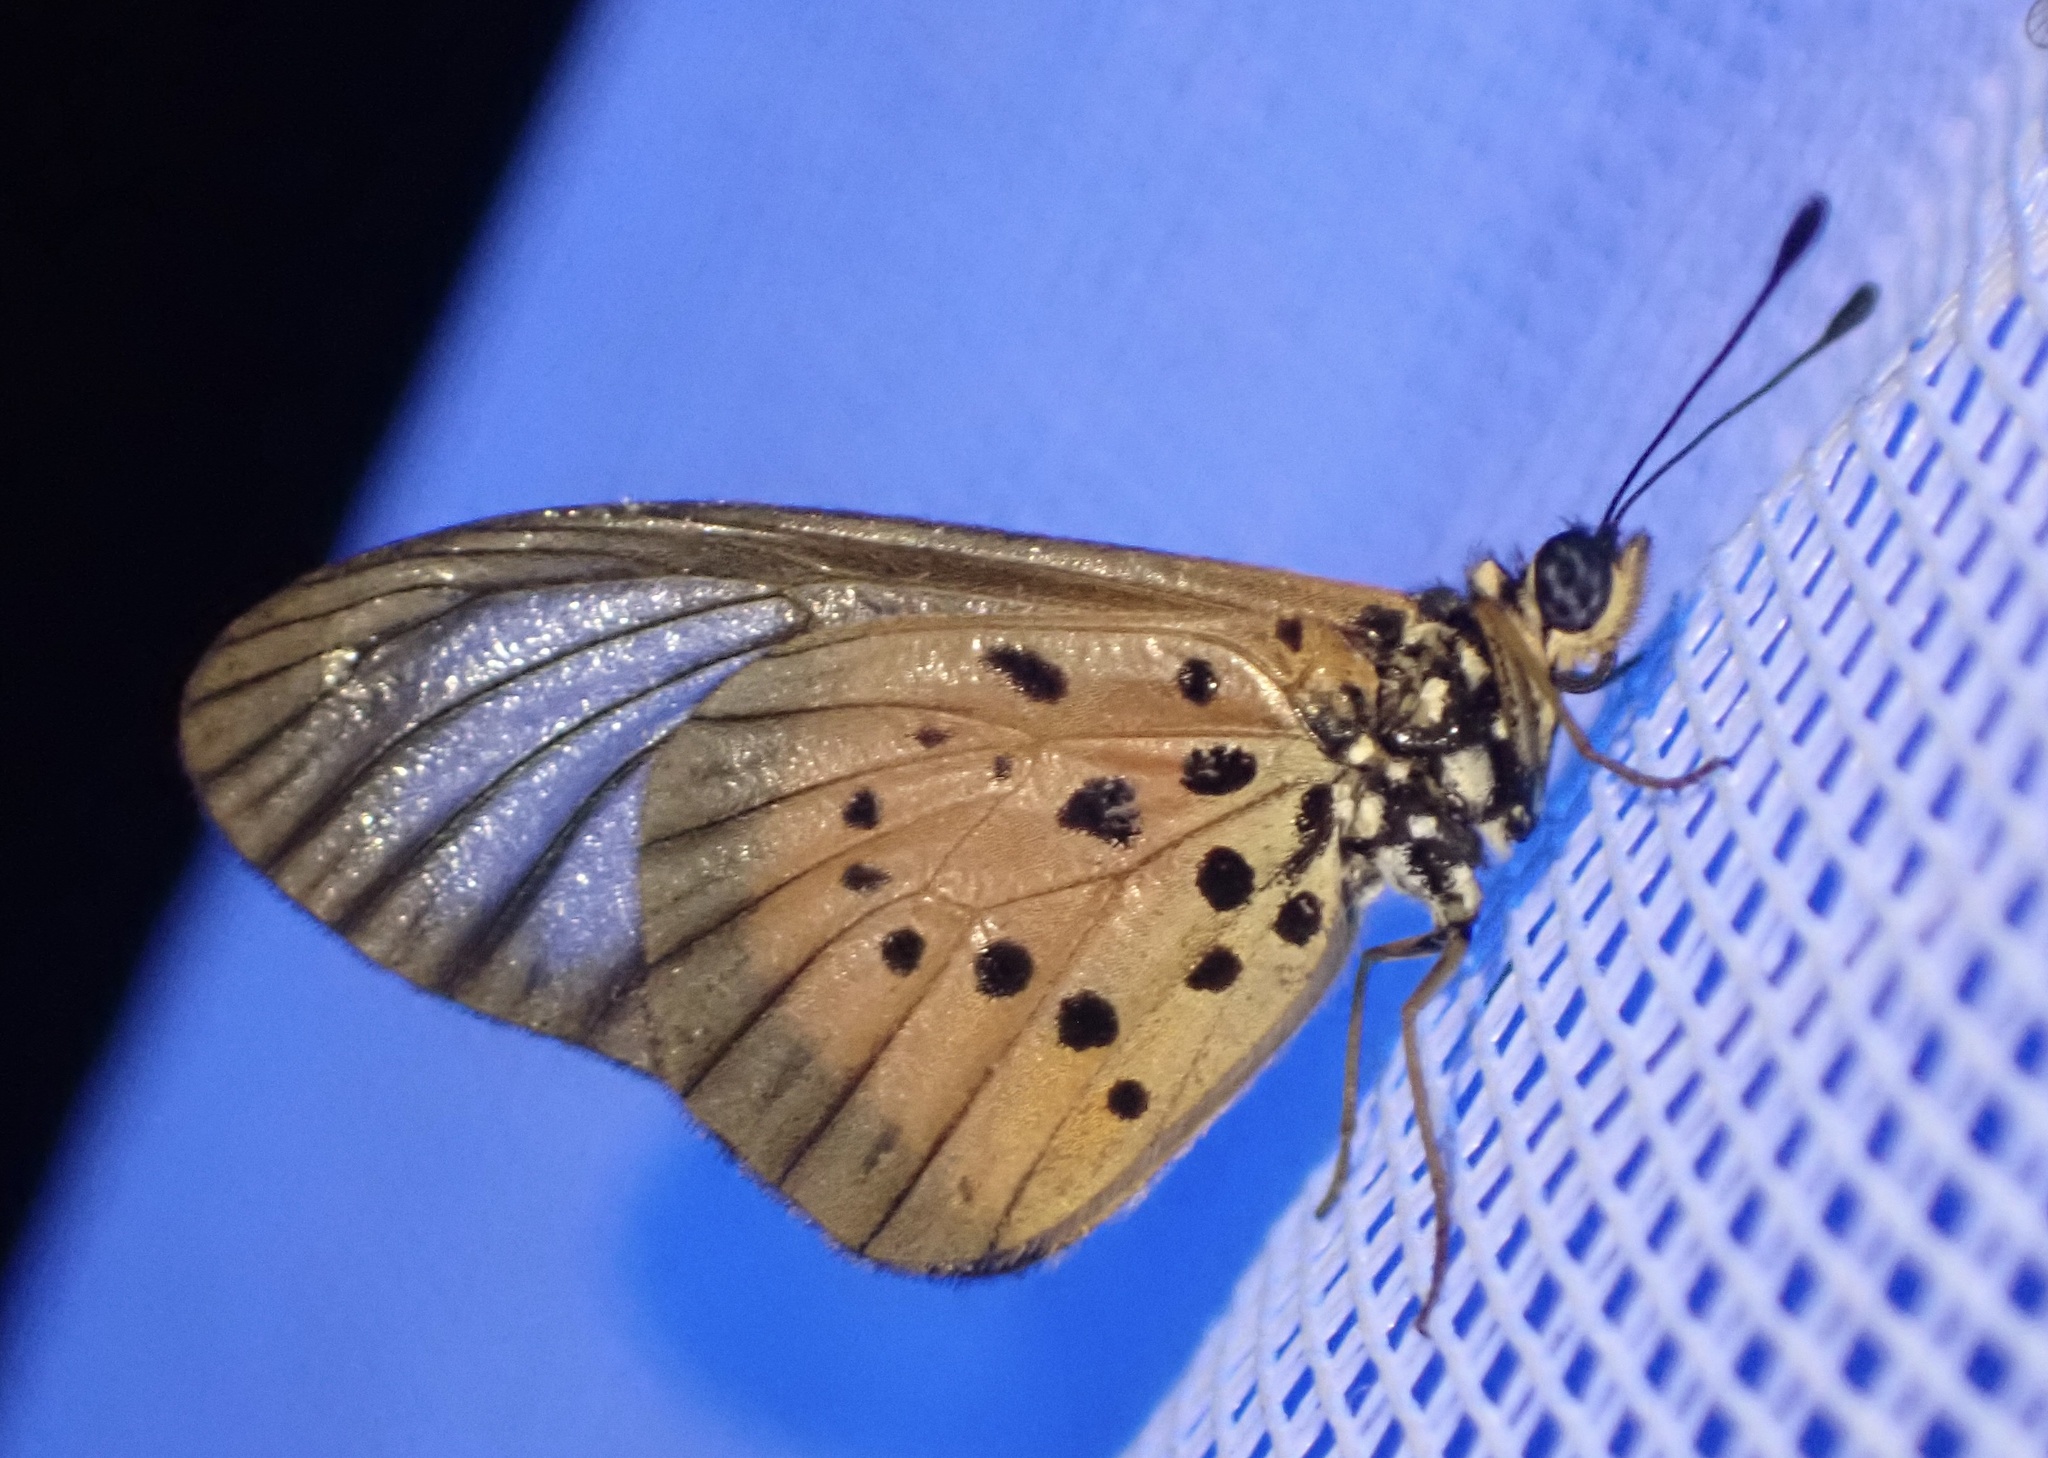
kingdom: Animalia
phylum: Arthropoda
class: Insecta
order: Lepidoptera
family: Nymphalidae
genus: Acraea
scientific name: Acraea
